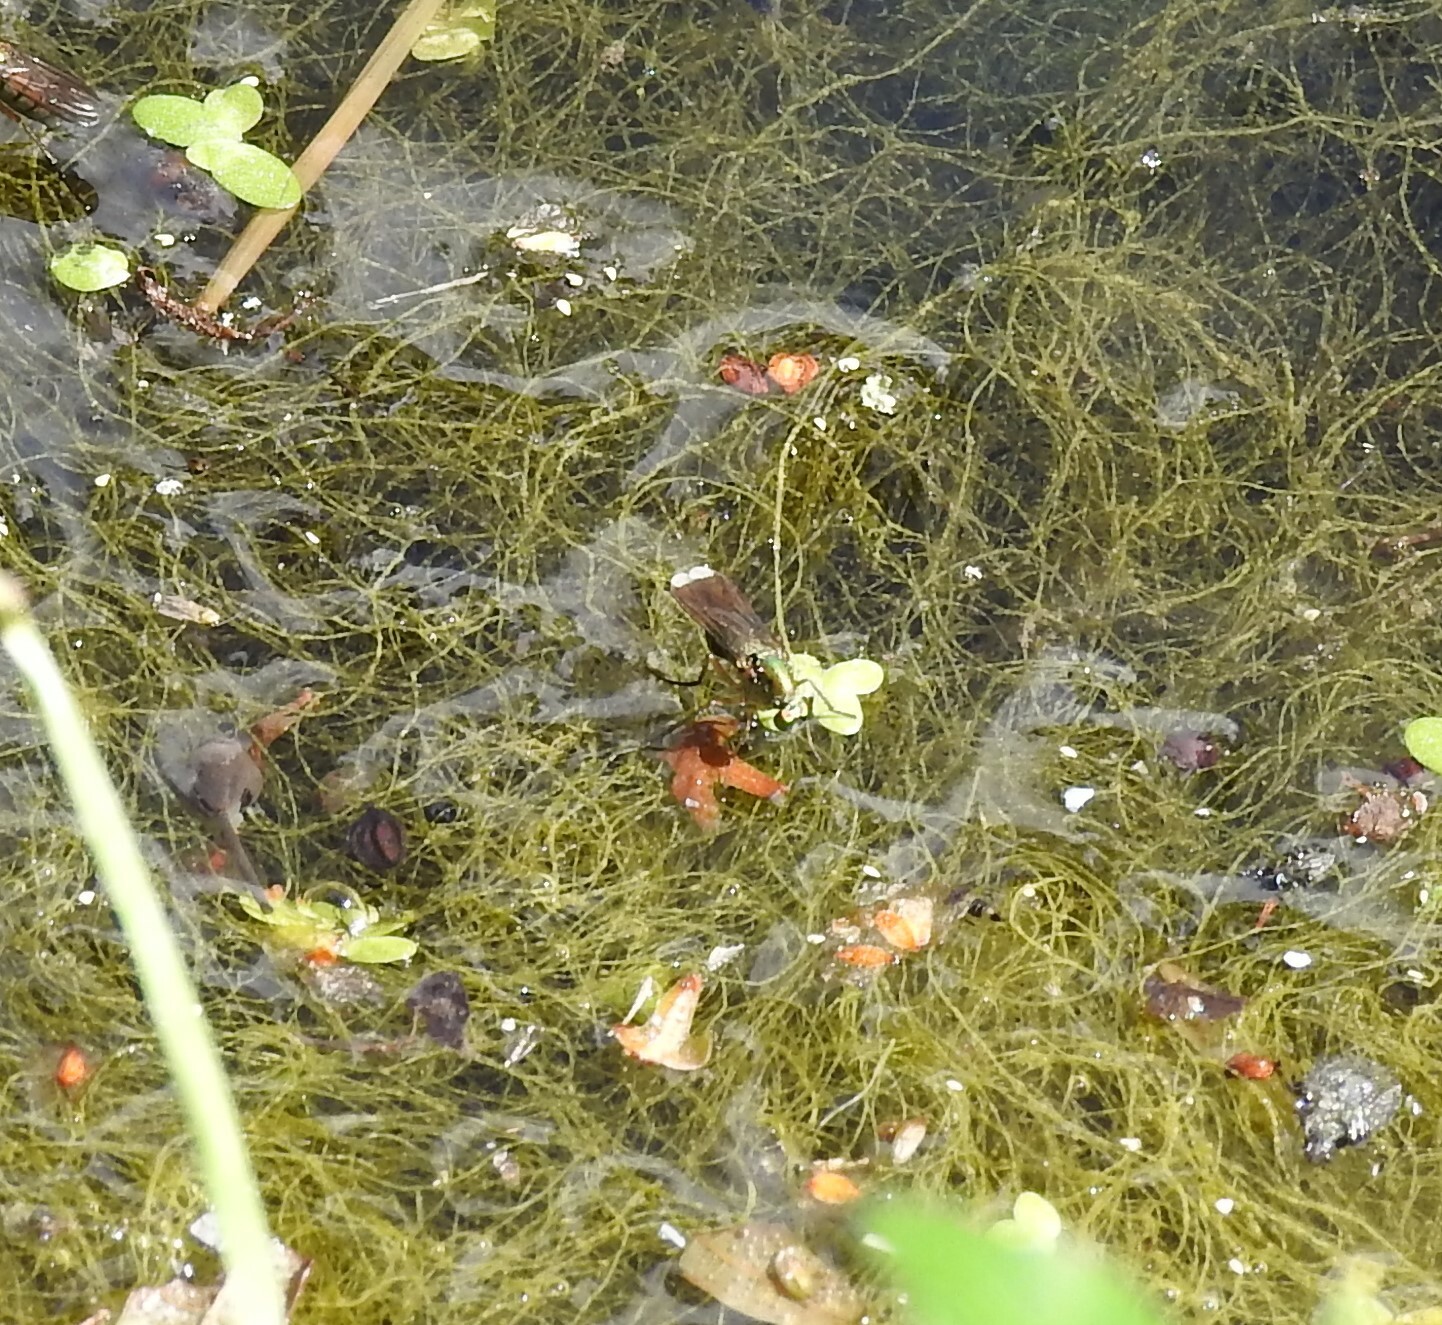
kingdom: Animalia
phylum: Arthropoda
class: Insecta
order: Diptera
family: Dolichopodidae
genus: Poecilobothrus
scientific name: Poecilobothrus nobilitatus
